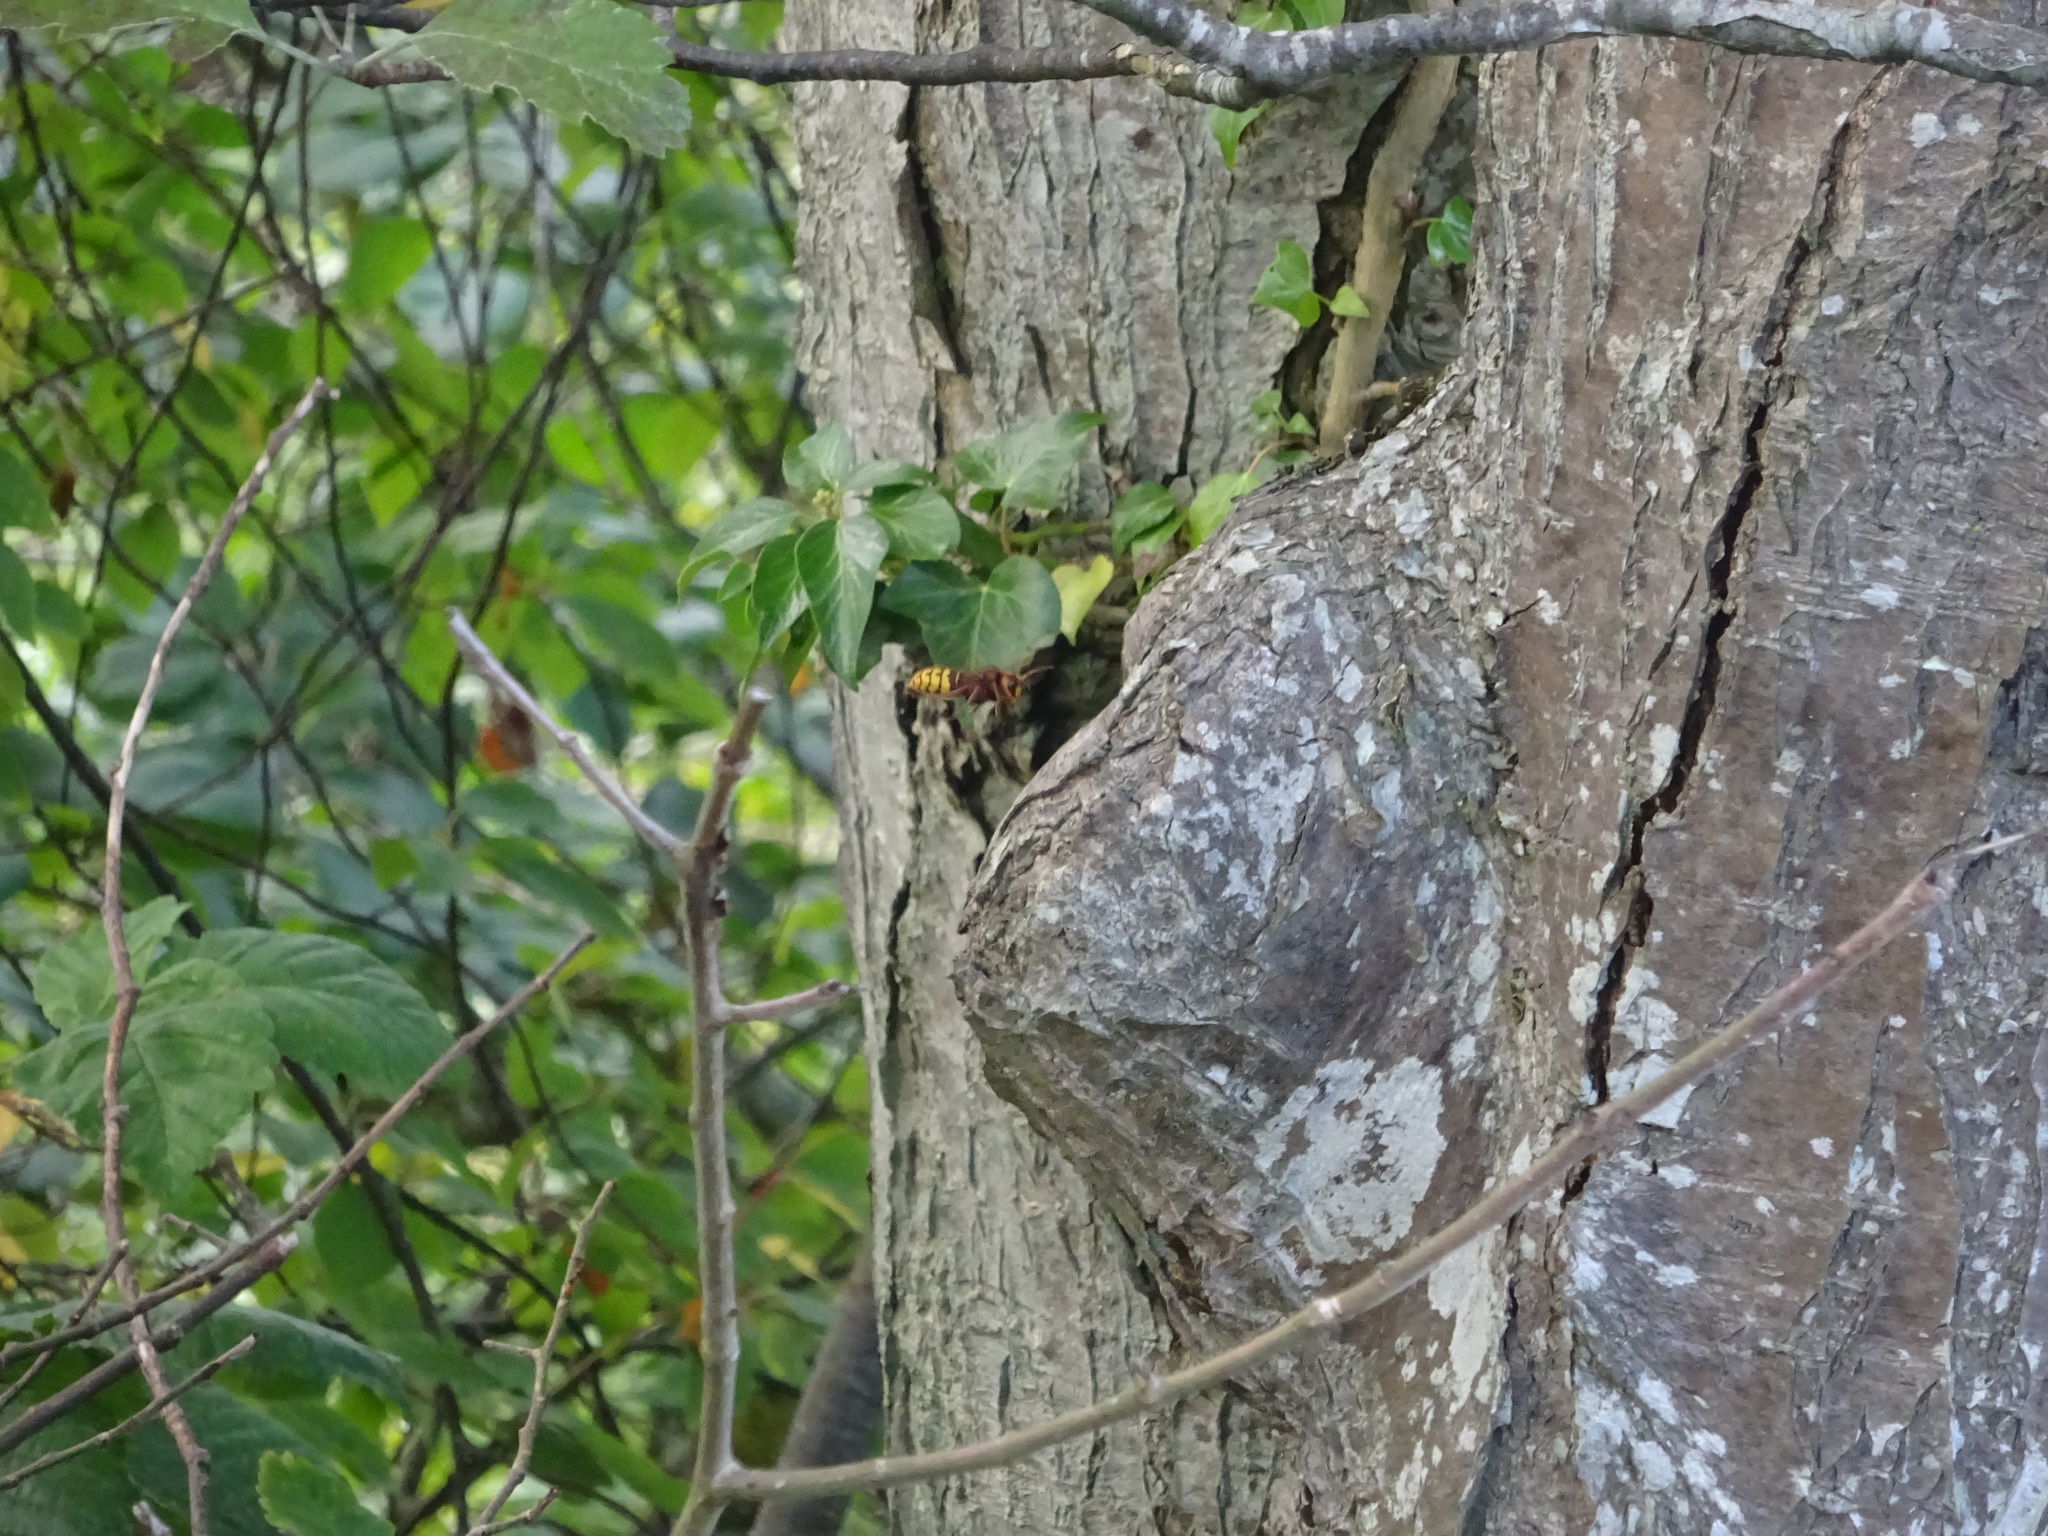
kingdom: Animalia
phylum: Arthropoda
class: Insecta
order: Hymenoptera
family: Vespidae
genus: Vespa
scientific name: Vespa crabro
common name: Hornet
